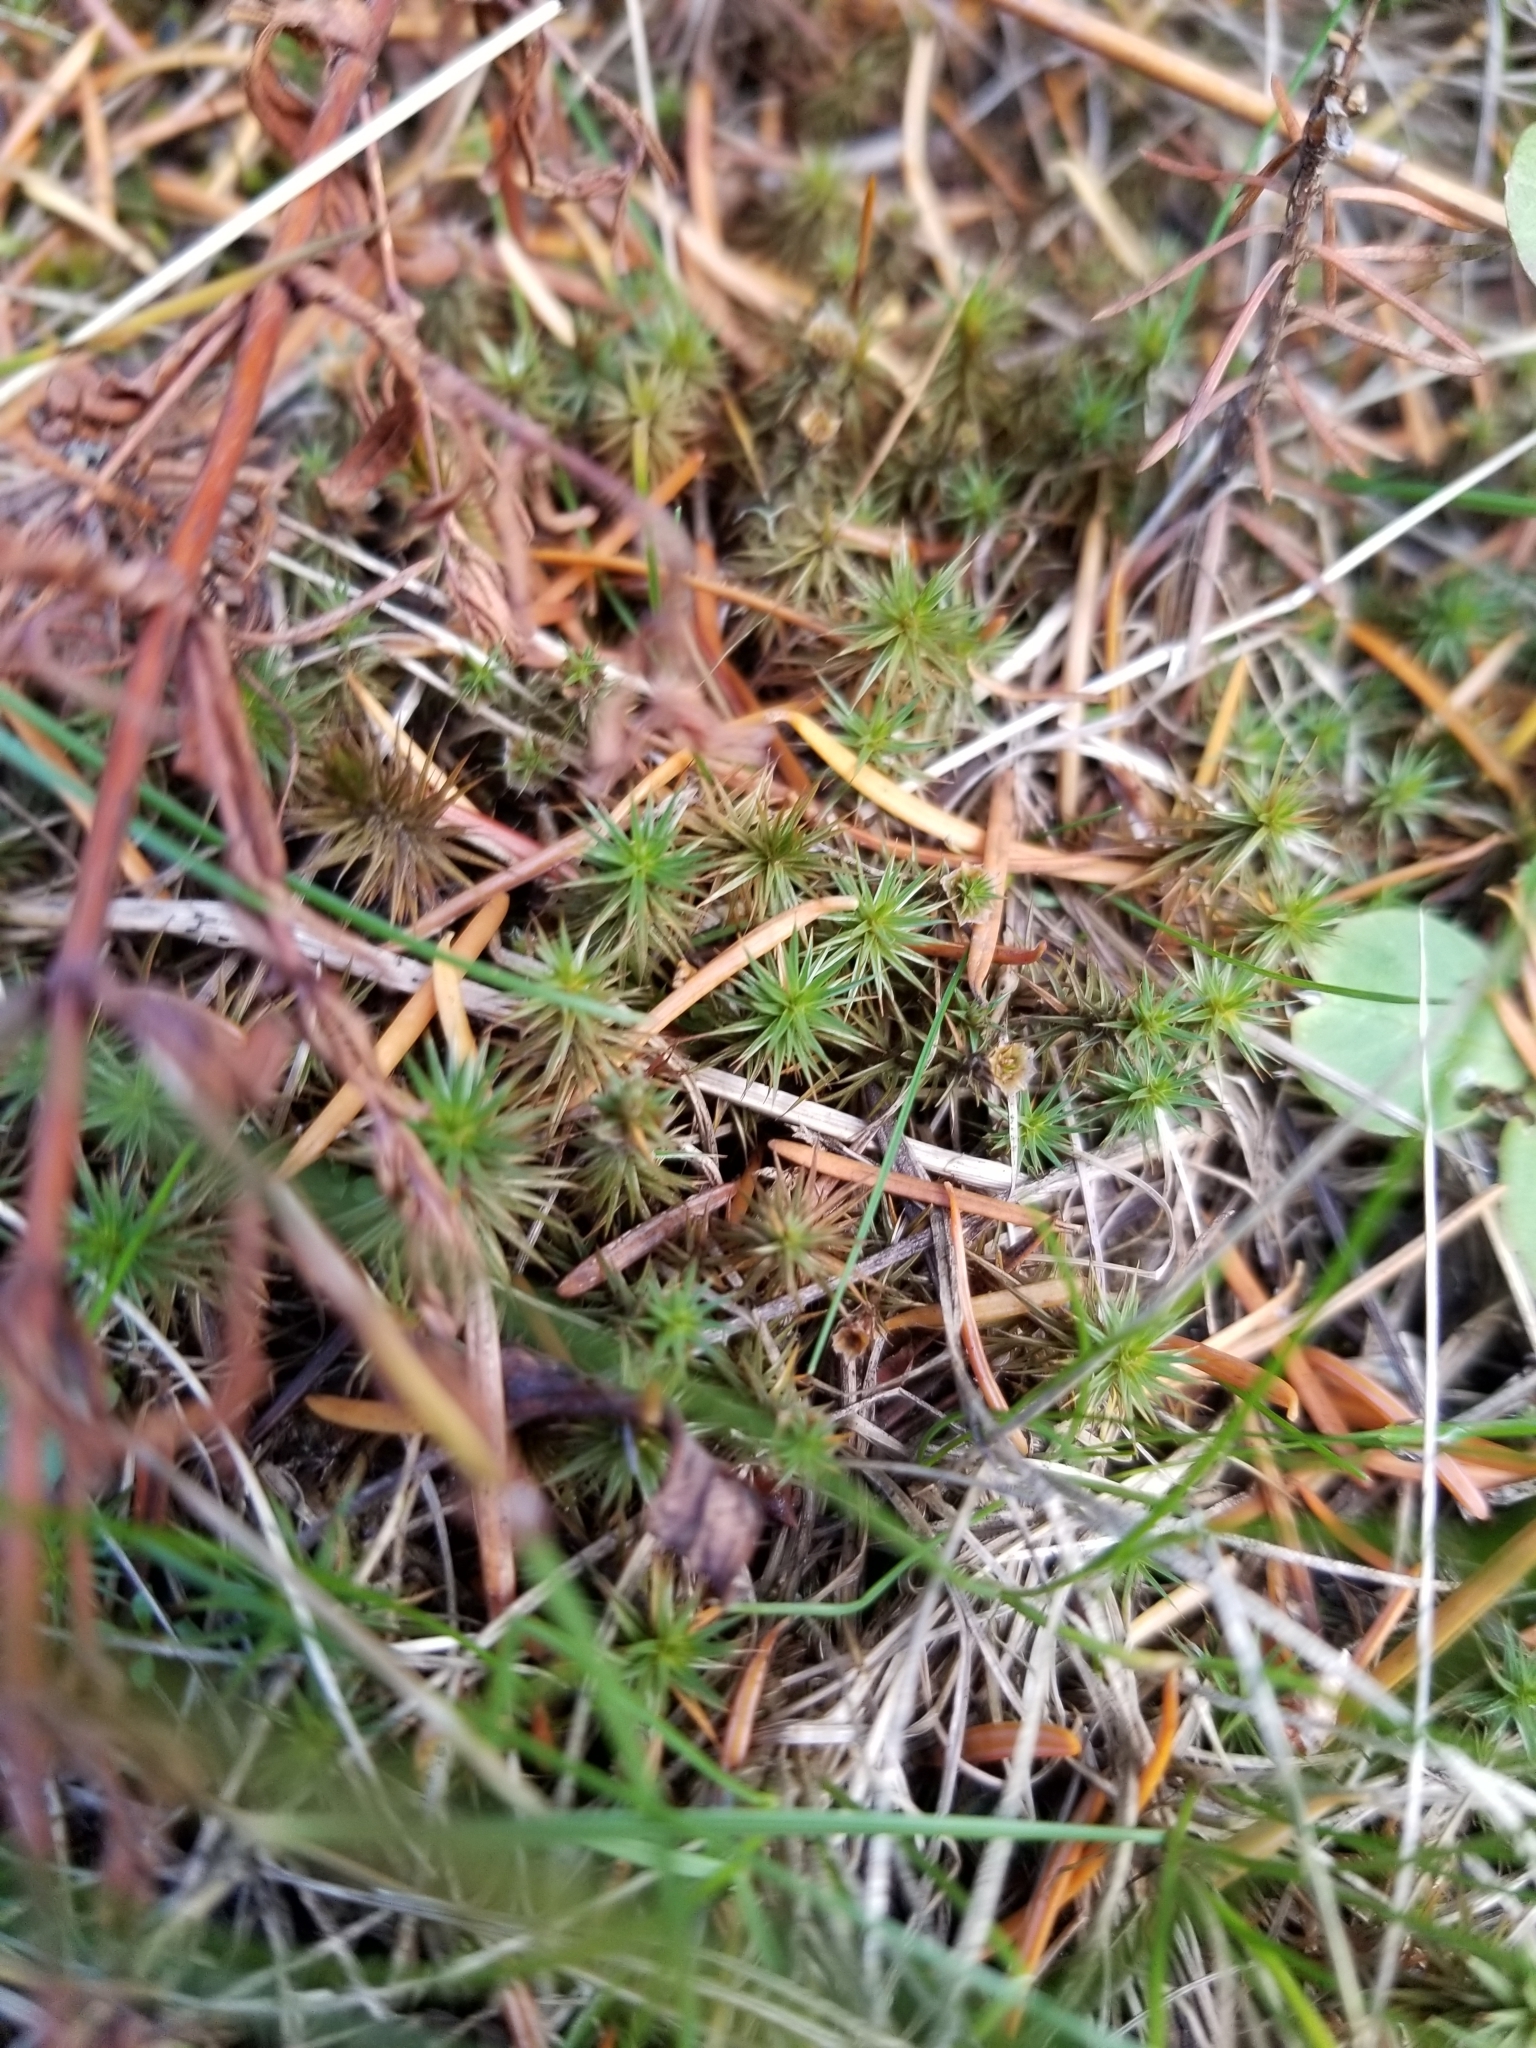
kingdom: Plantae
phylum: Bryophyta
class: Polytrichopsida
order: Polytrichales
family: Polytrichaceae
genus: Polytrichum
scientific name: Polytrichum juniperinum
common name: Juniper haircap moss
